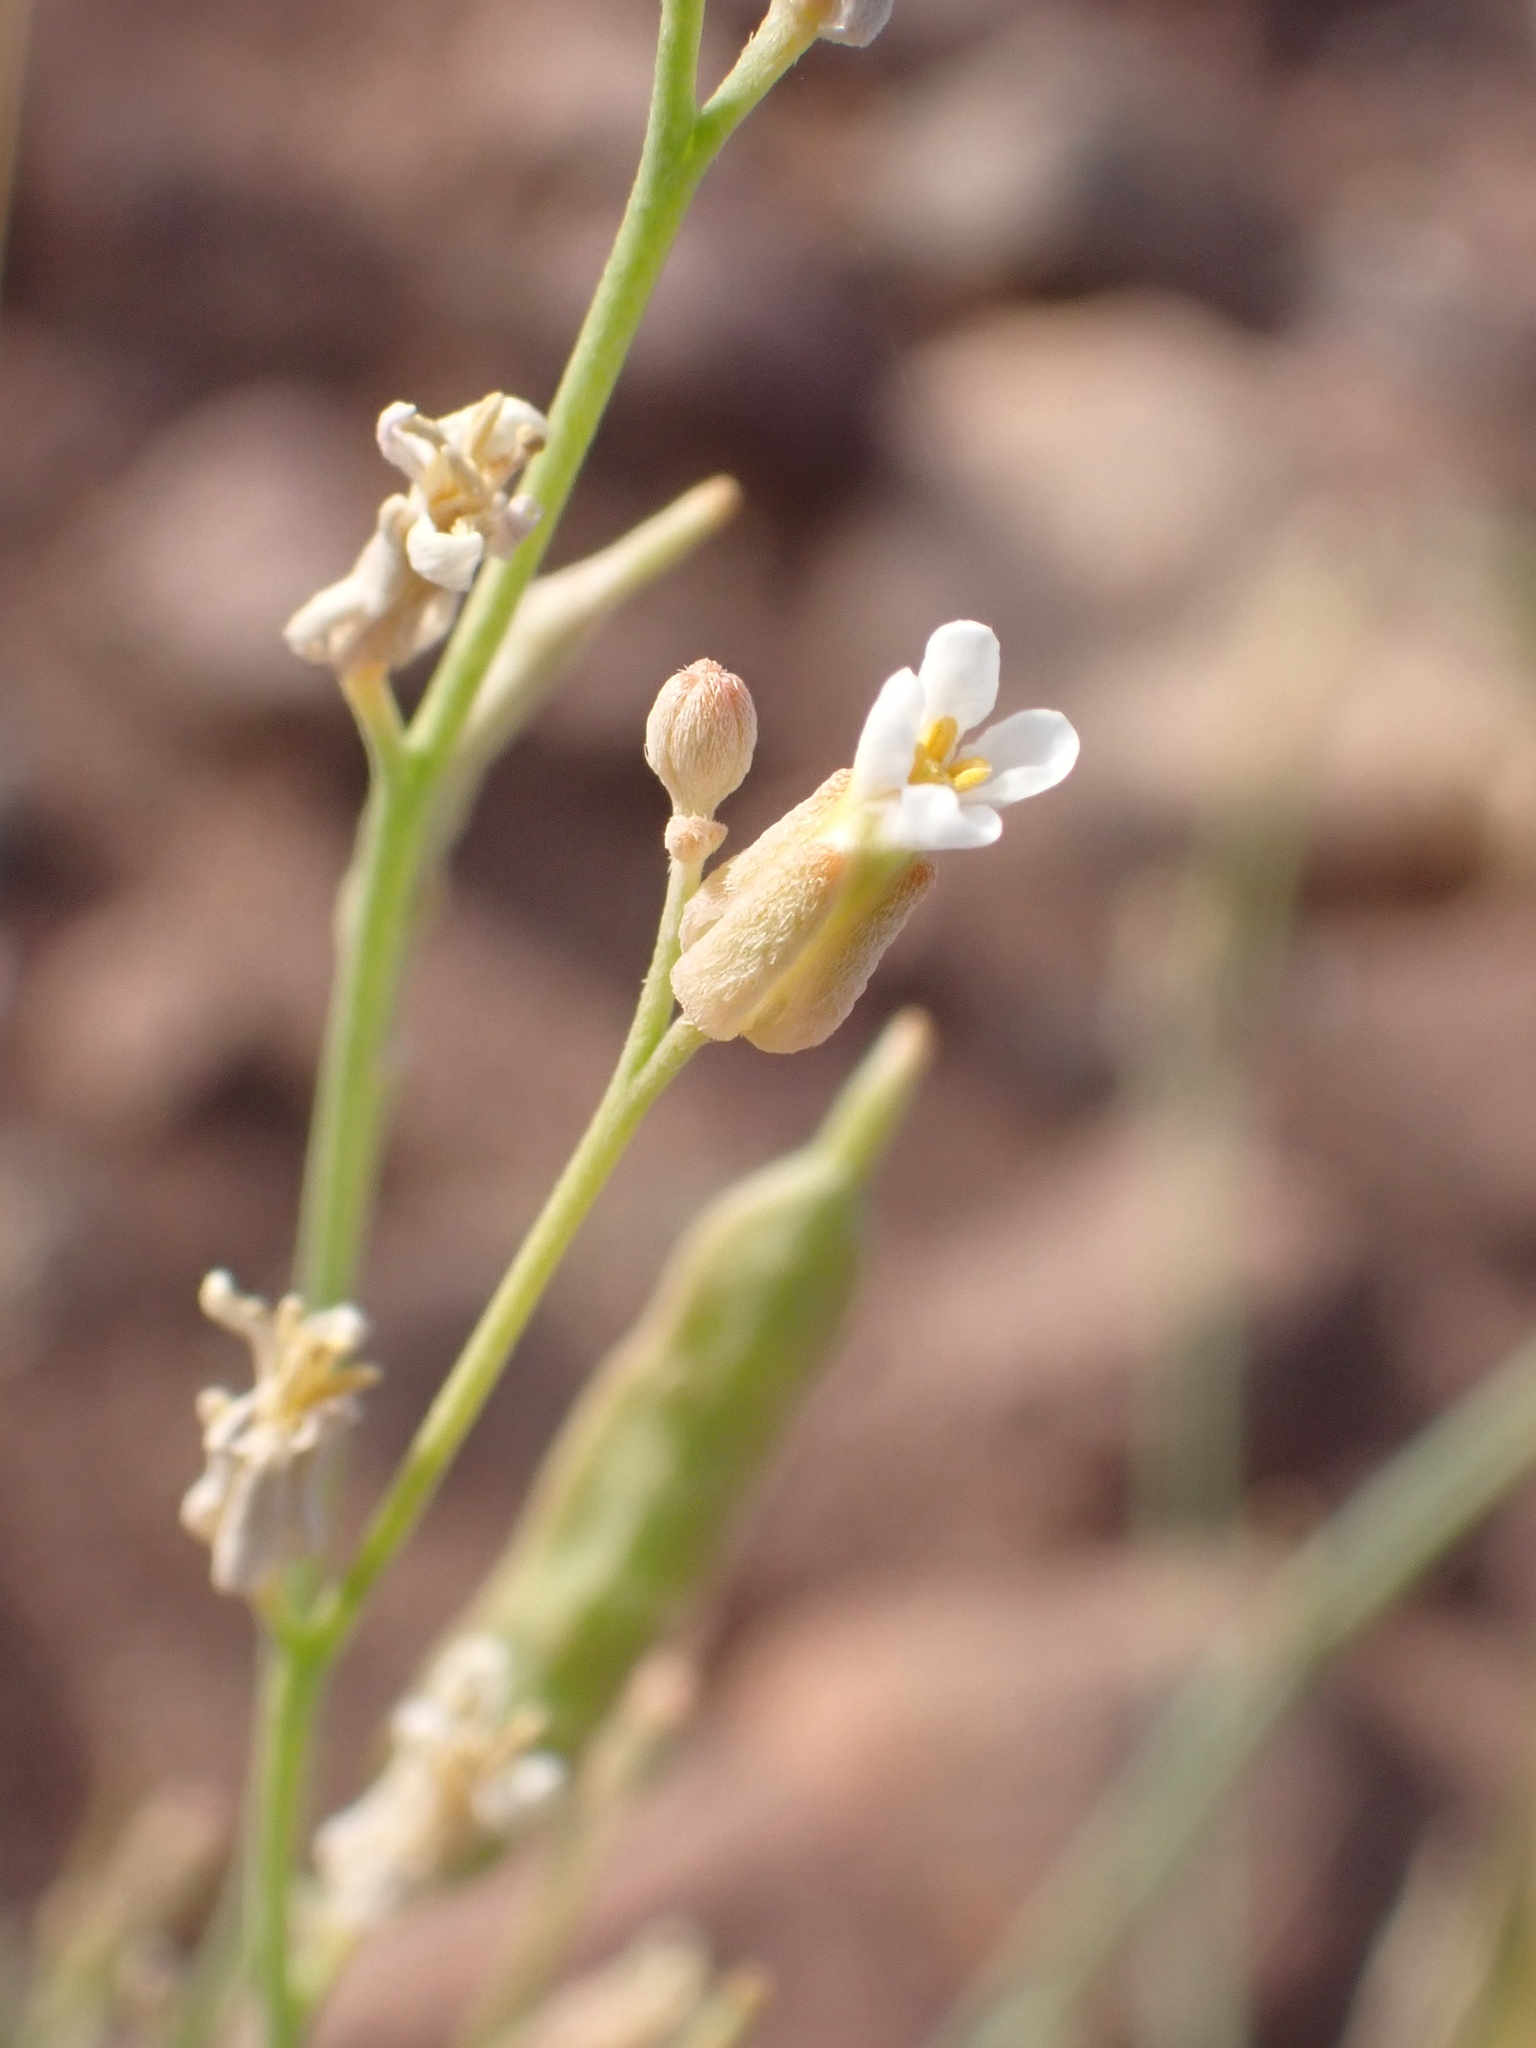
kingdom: Plantae
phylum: Tracheophyta
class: Magnoliopsida
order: Brassicales
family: Brassicaceae
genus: Farsetia
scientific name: Farsetia occidentalis
